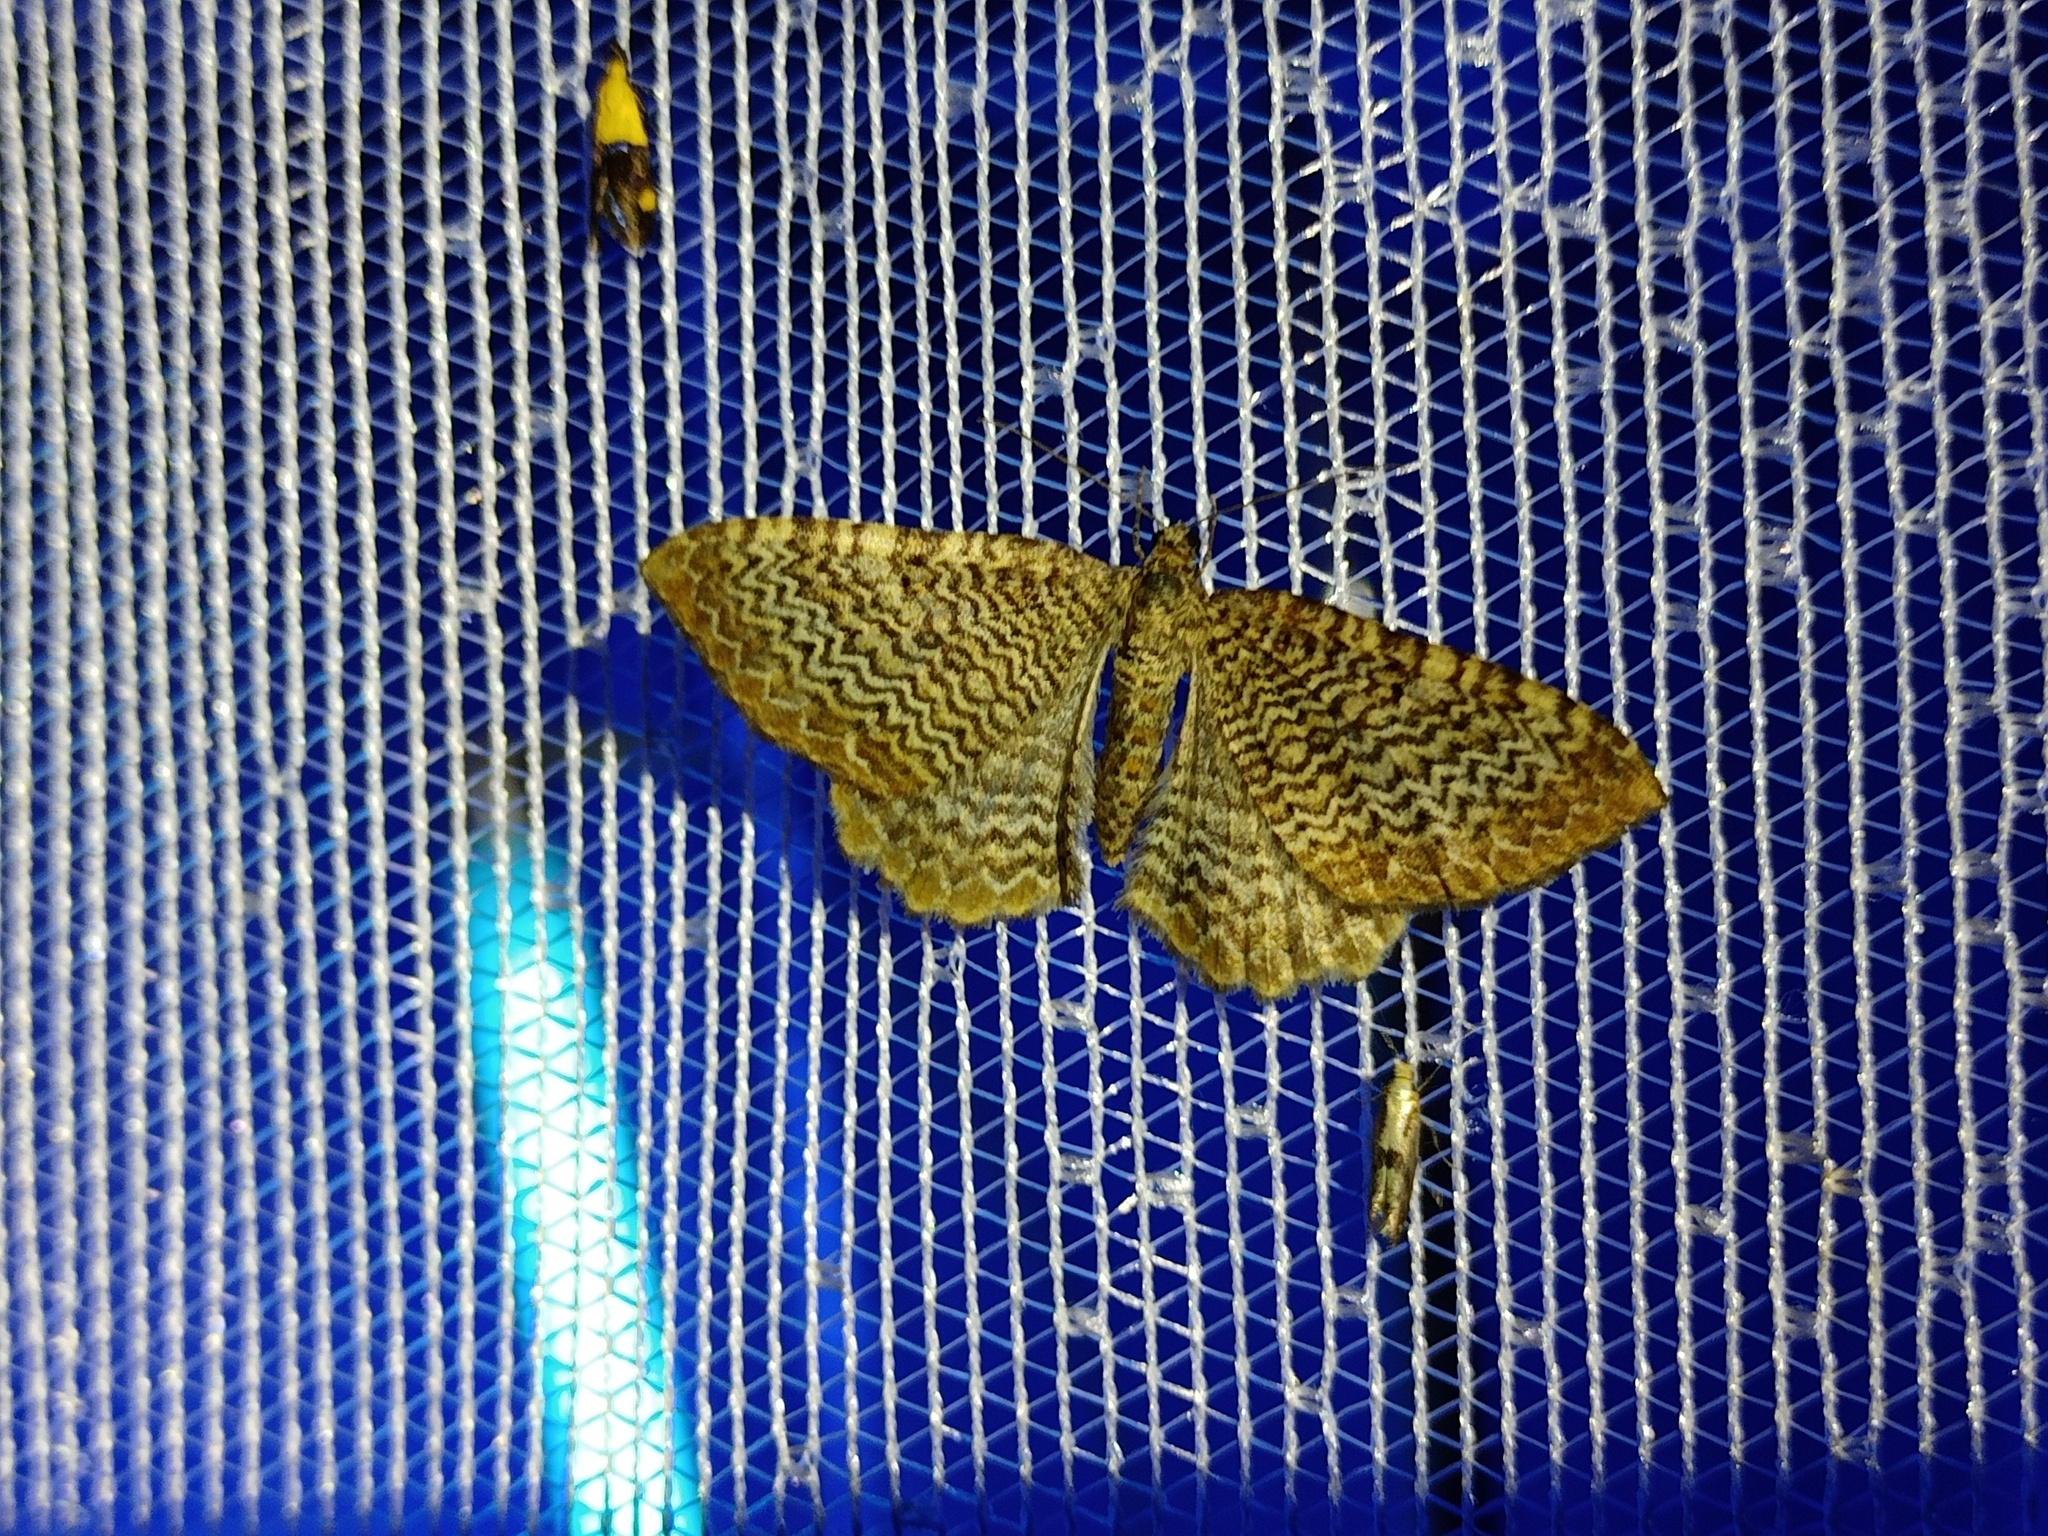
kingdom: Animalia
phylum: Arthropoda
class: Insecta
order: Lepidoptera
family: Geometridae
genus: Rheumaptera
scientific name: Rheumaptera undulata
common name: Scallop shell
